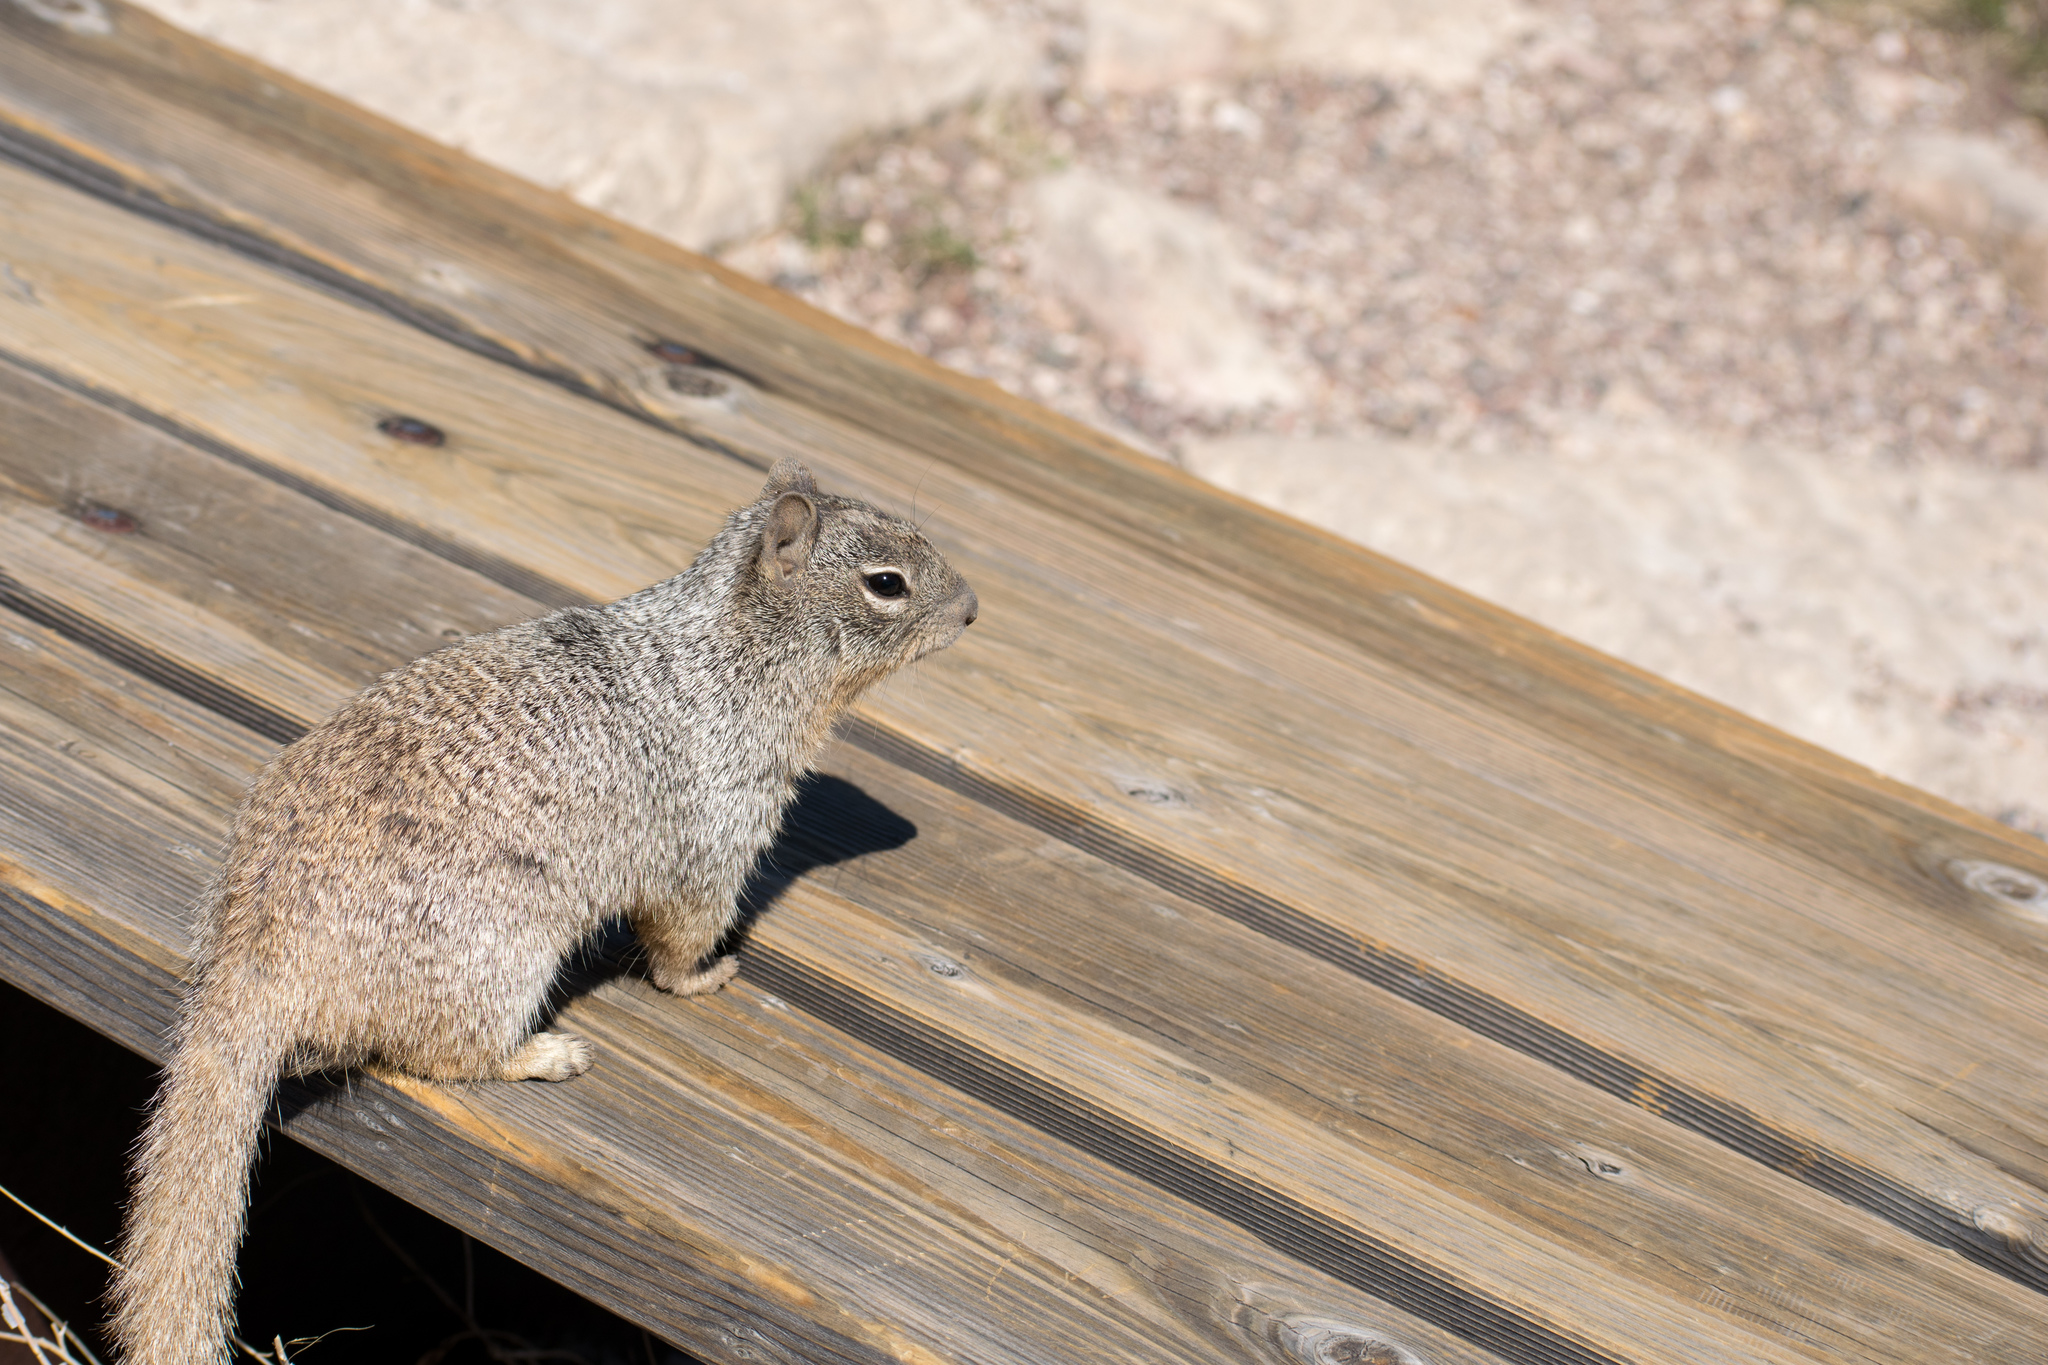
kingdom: Animalia
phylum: Chordata
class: Mammalia
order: Rodentia
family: Sciuridae
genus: Otospermophilus
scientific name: Otospermophilus variegatus
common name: Rock squirrel
